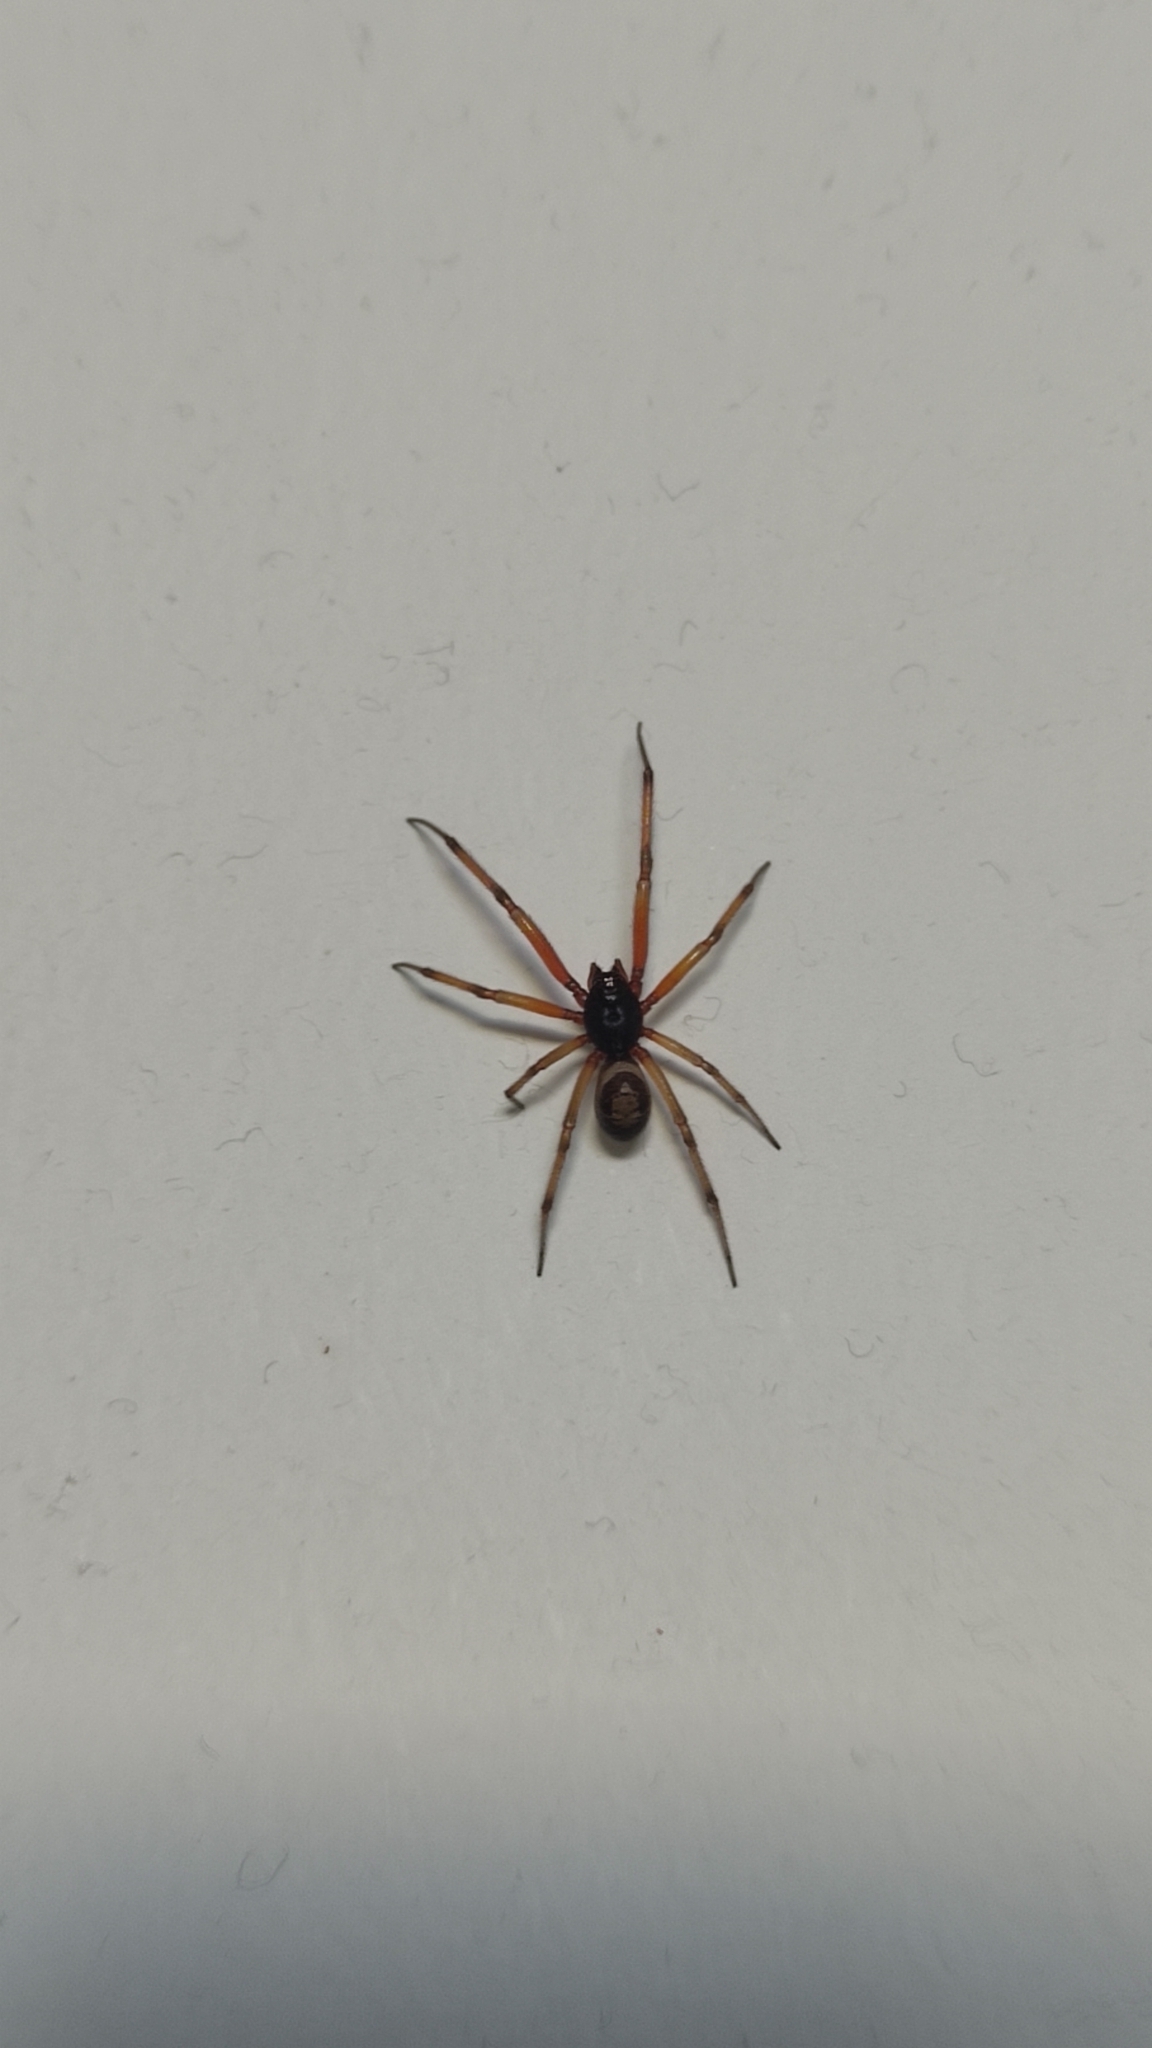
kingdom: Animalia
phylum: Arthropoda
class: Arachnida
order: Araneae
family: Theridiidae
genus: Steatoda
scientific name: Steatoda nobilis
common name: Cobweb weaver
